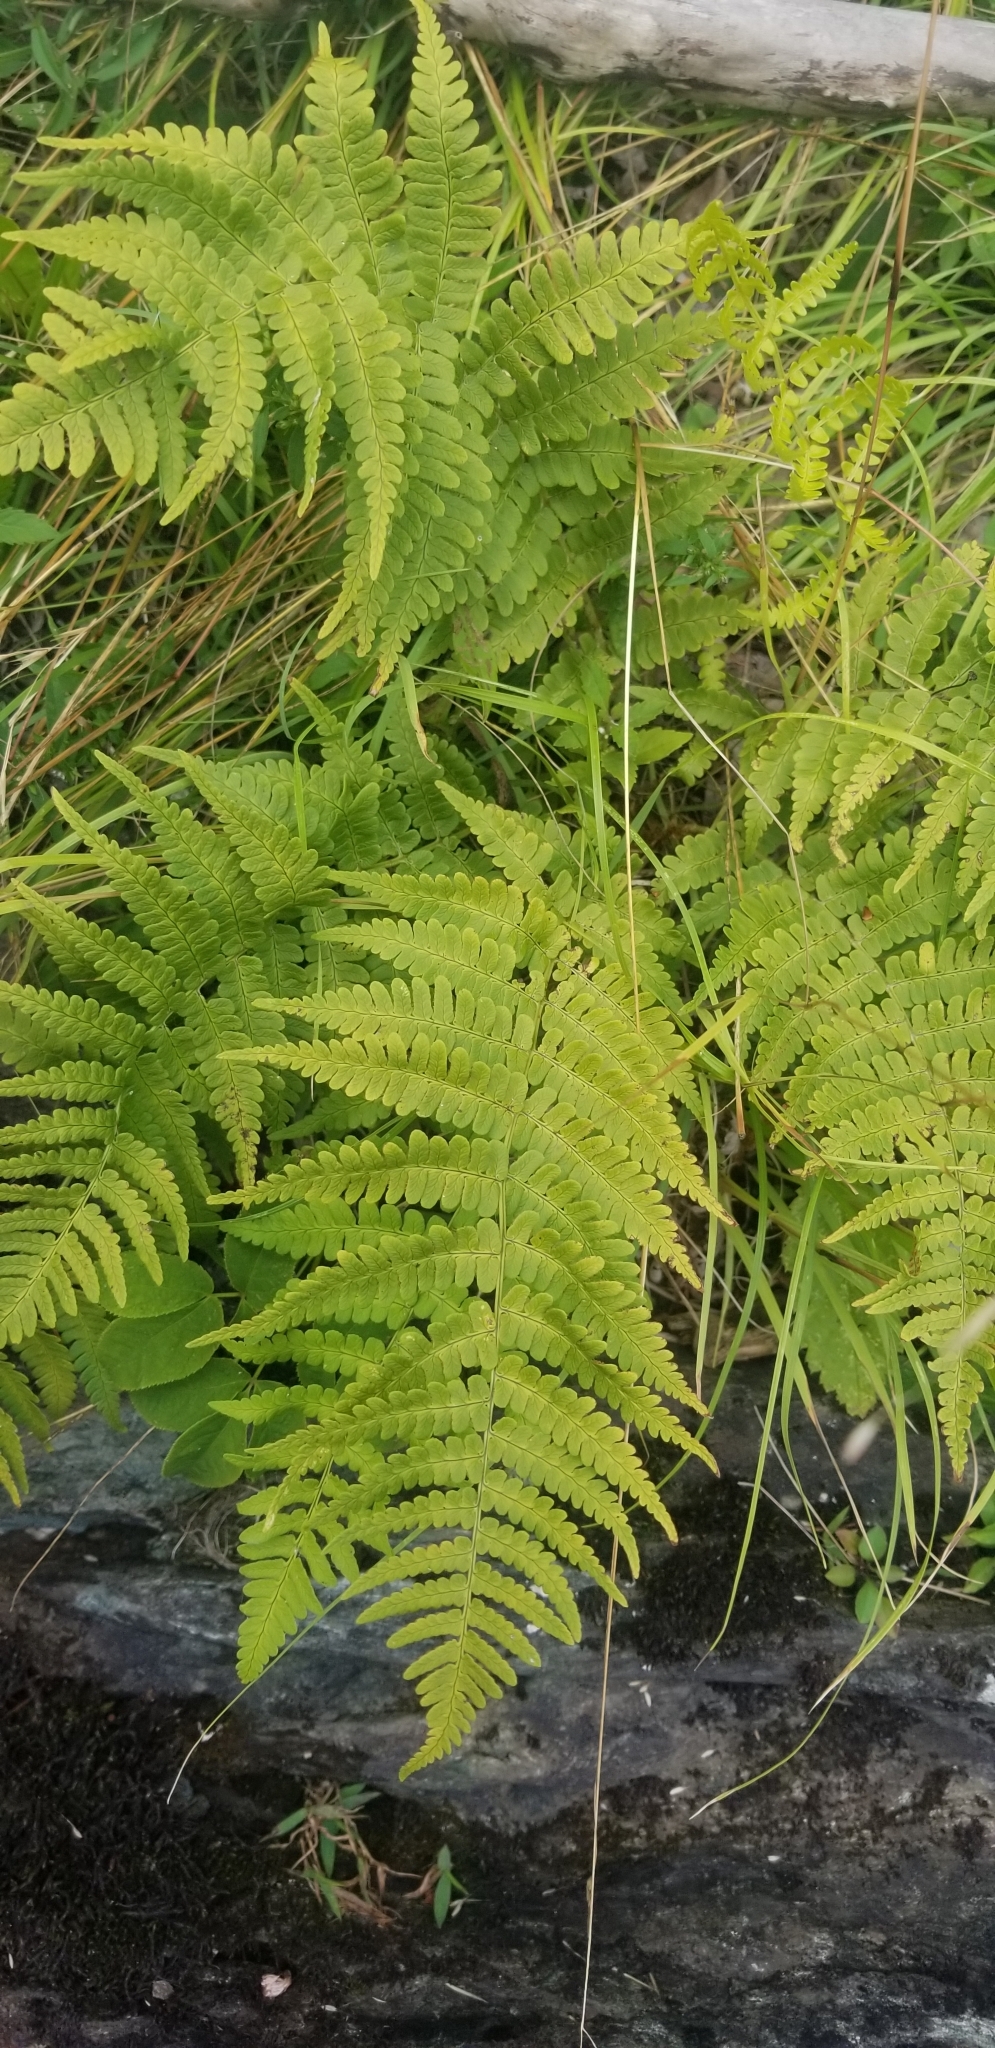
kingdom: Plantae
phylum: Tracheophyta
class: Polypodiopsida
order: Polypodiales
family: Dryopteridaceae
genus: Dryopteris
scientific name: Dryopteris marginalis
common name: Marginal wood fern
